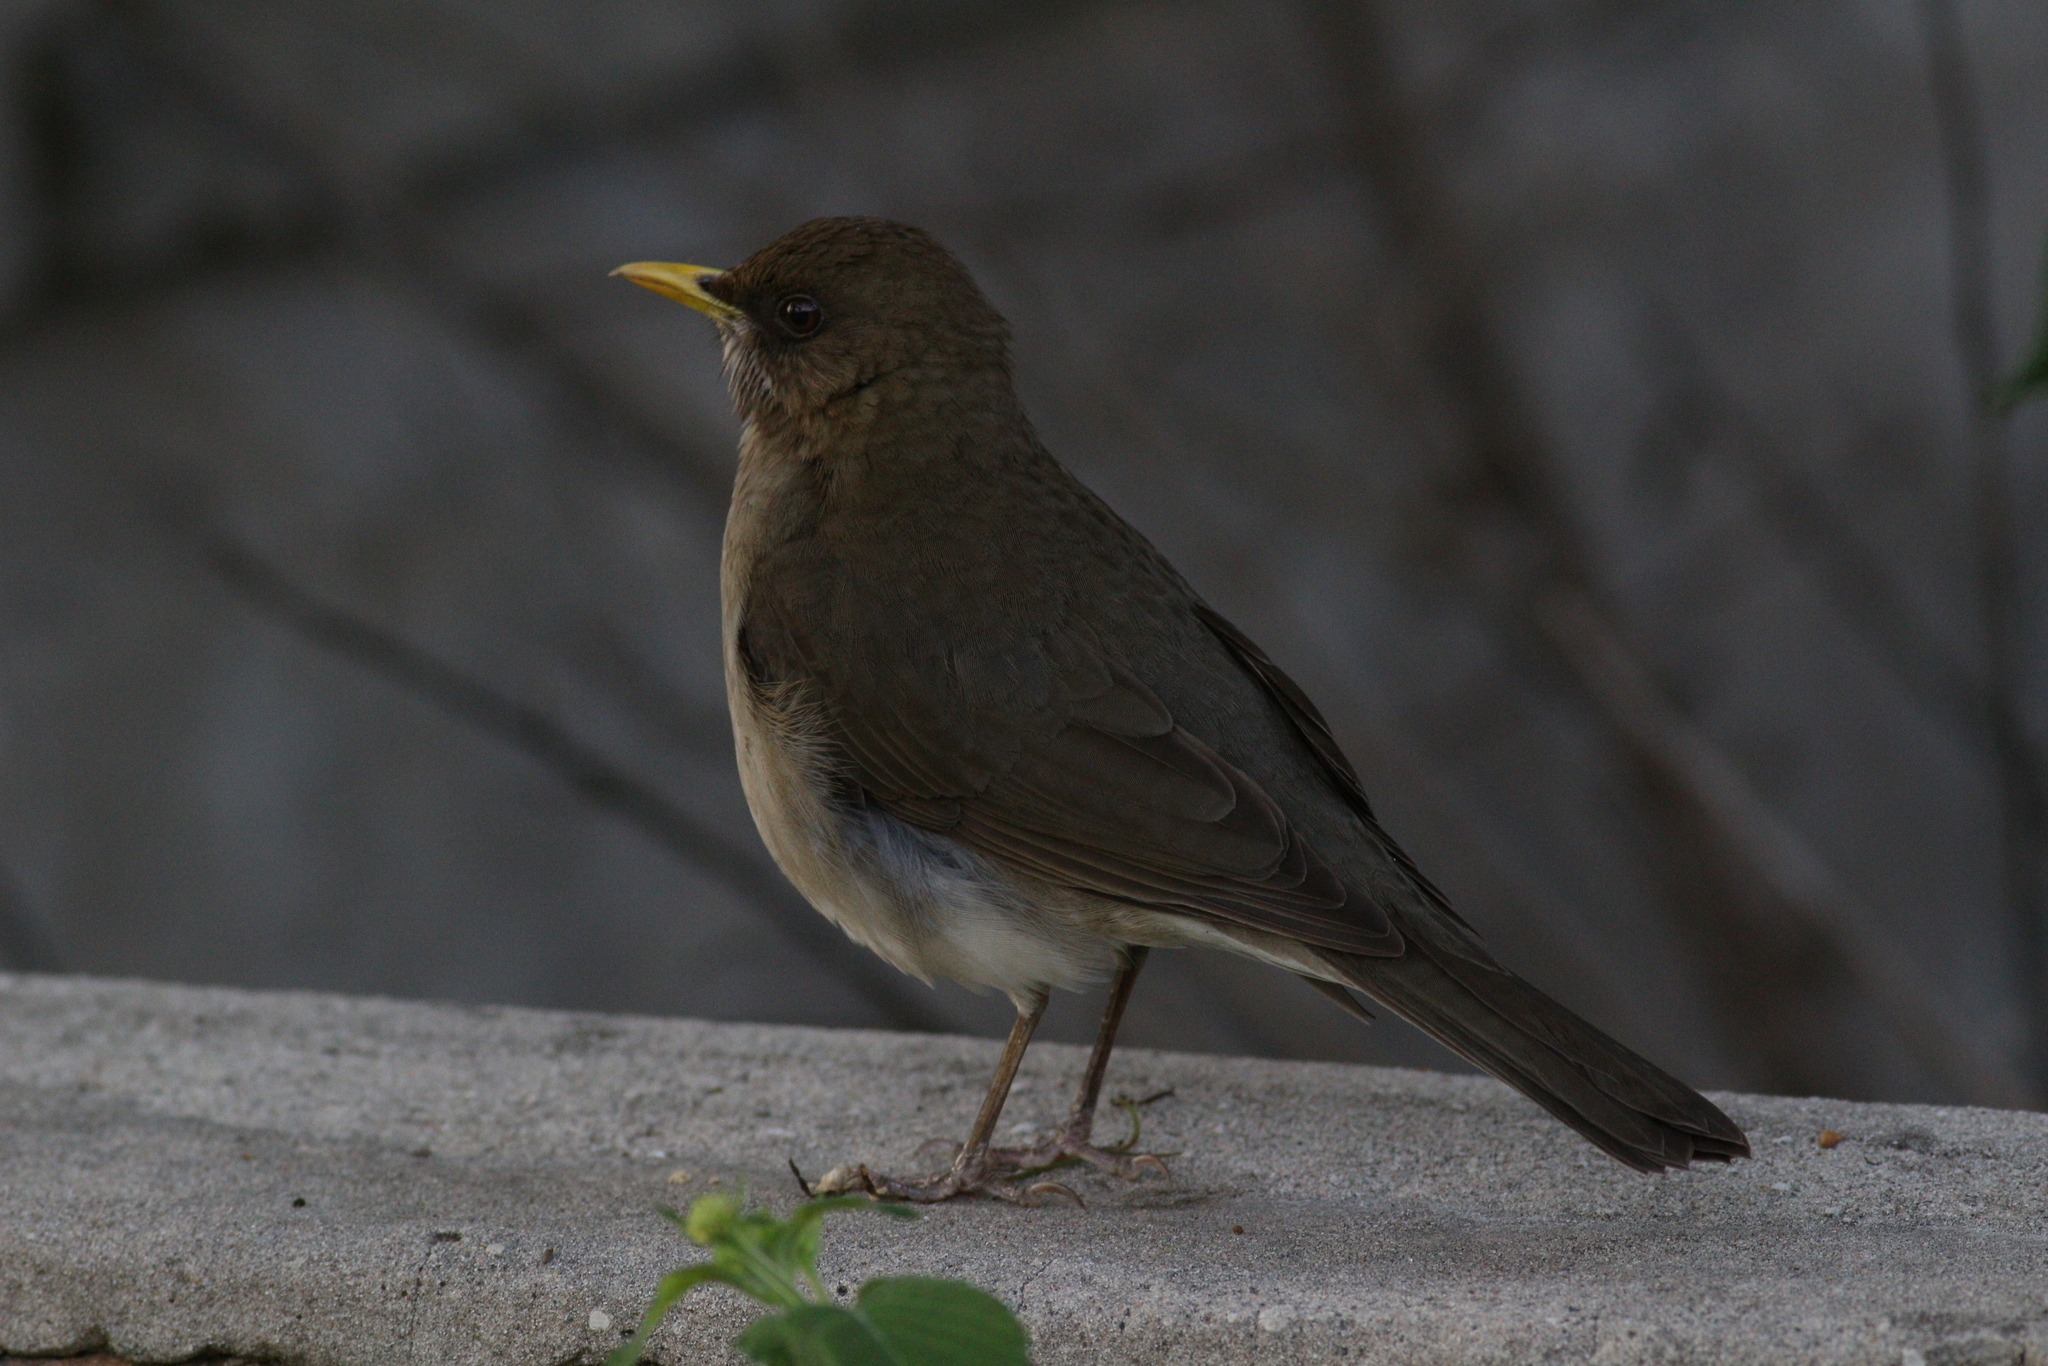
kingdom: Animalia
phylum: Chordata
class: Aves
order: Passeriformes
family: Turdidae
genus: Turdus
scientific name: Turdus amaurochalinus
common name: Creamy-bellied thrush
